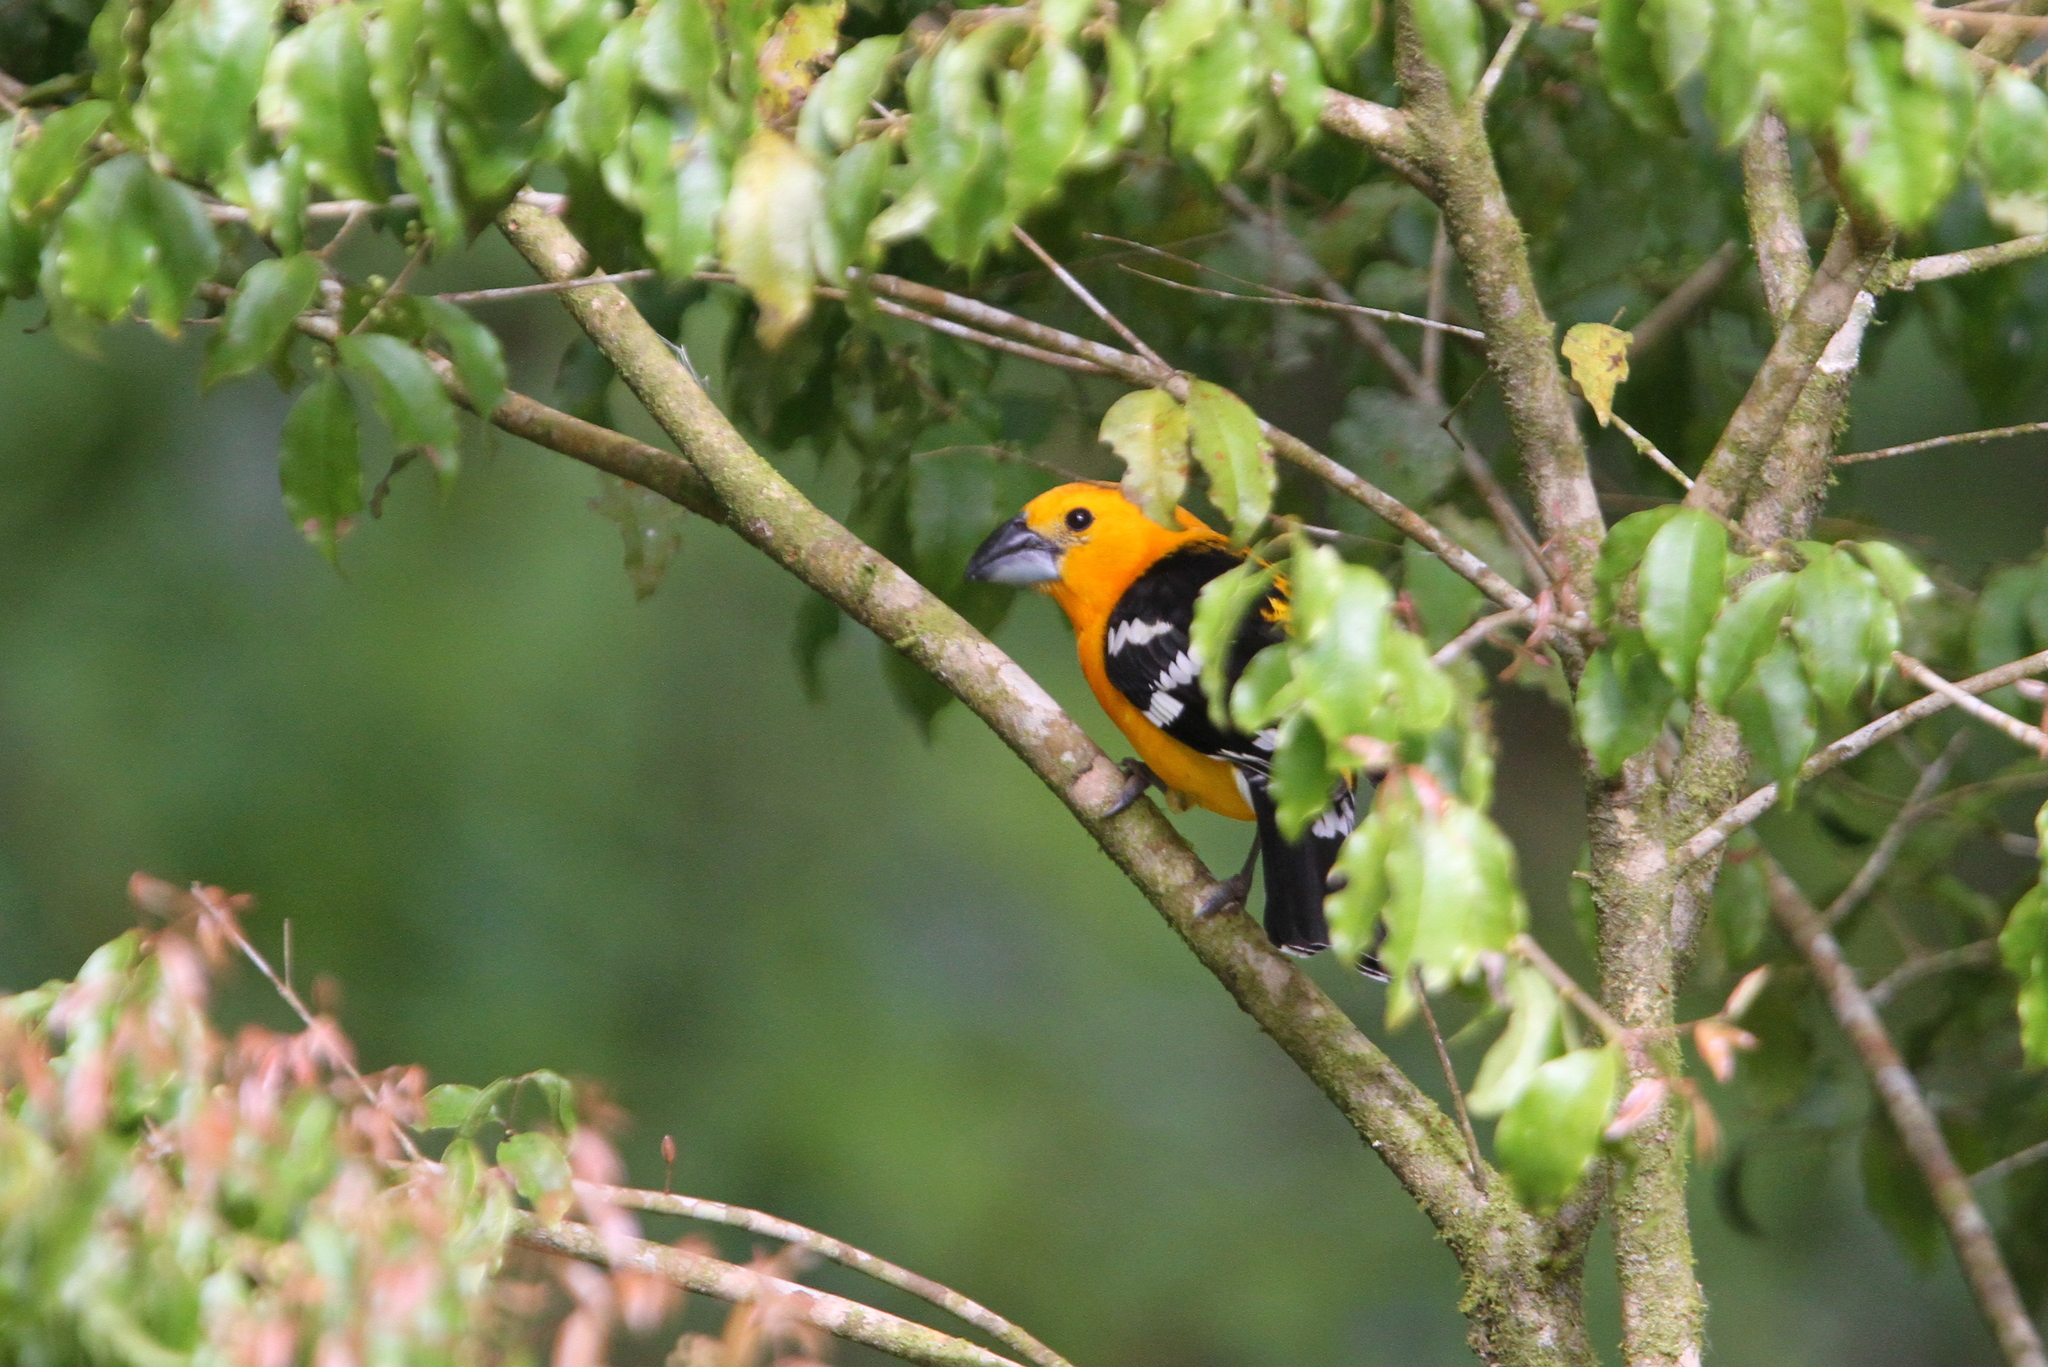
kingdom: Animalia
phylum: Chordata
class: Aves
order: Passeriformes
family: Cardinalidae
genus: Pheucticus
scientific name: Pheucticus chrysopeplus
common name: Yellow grosbeak
